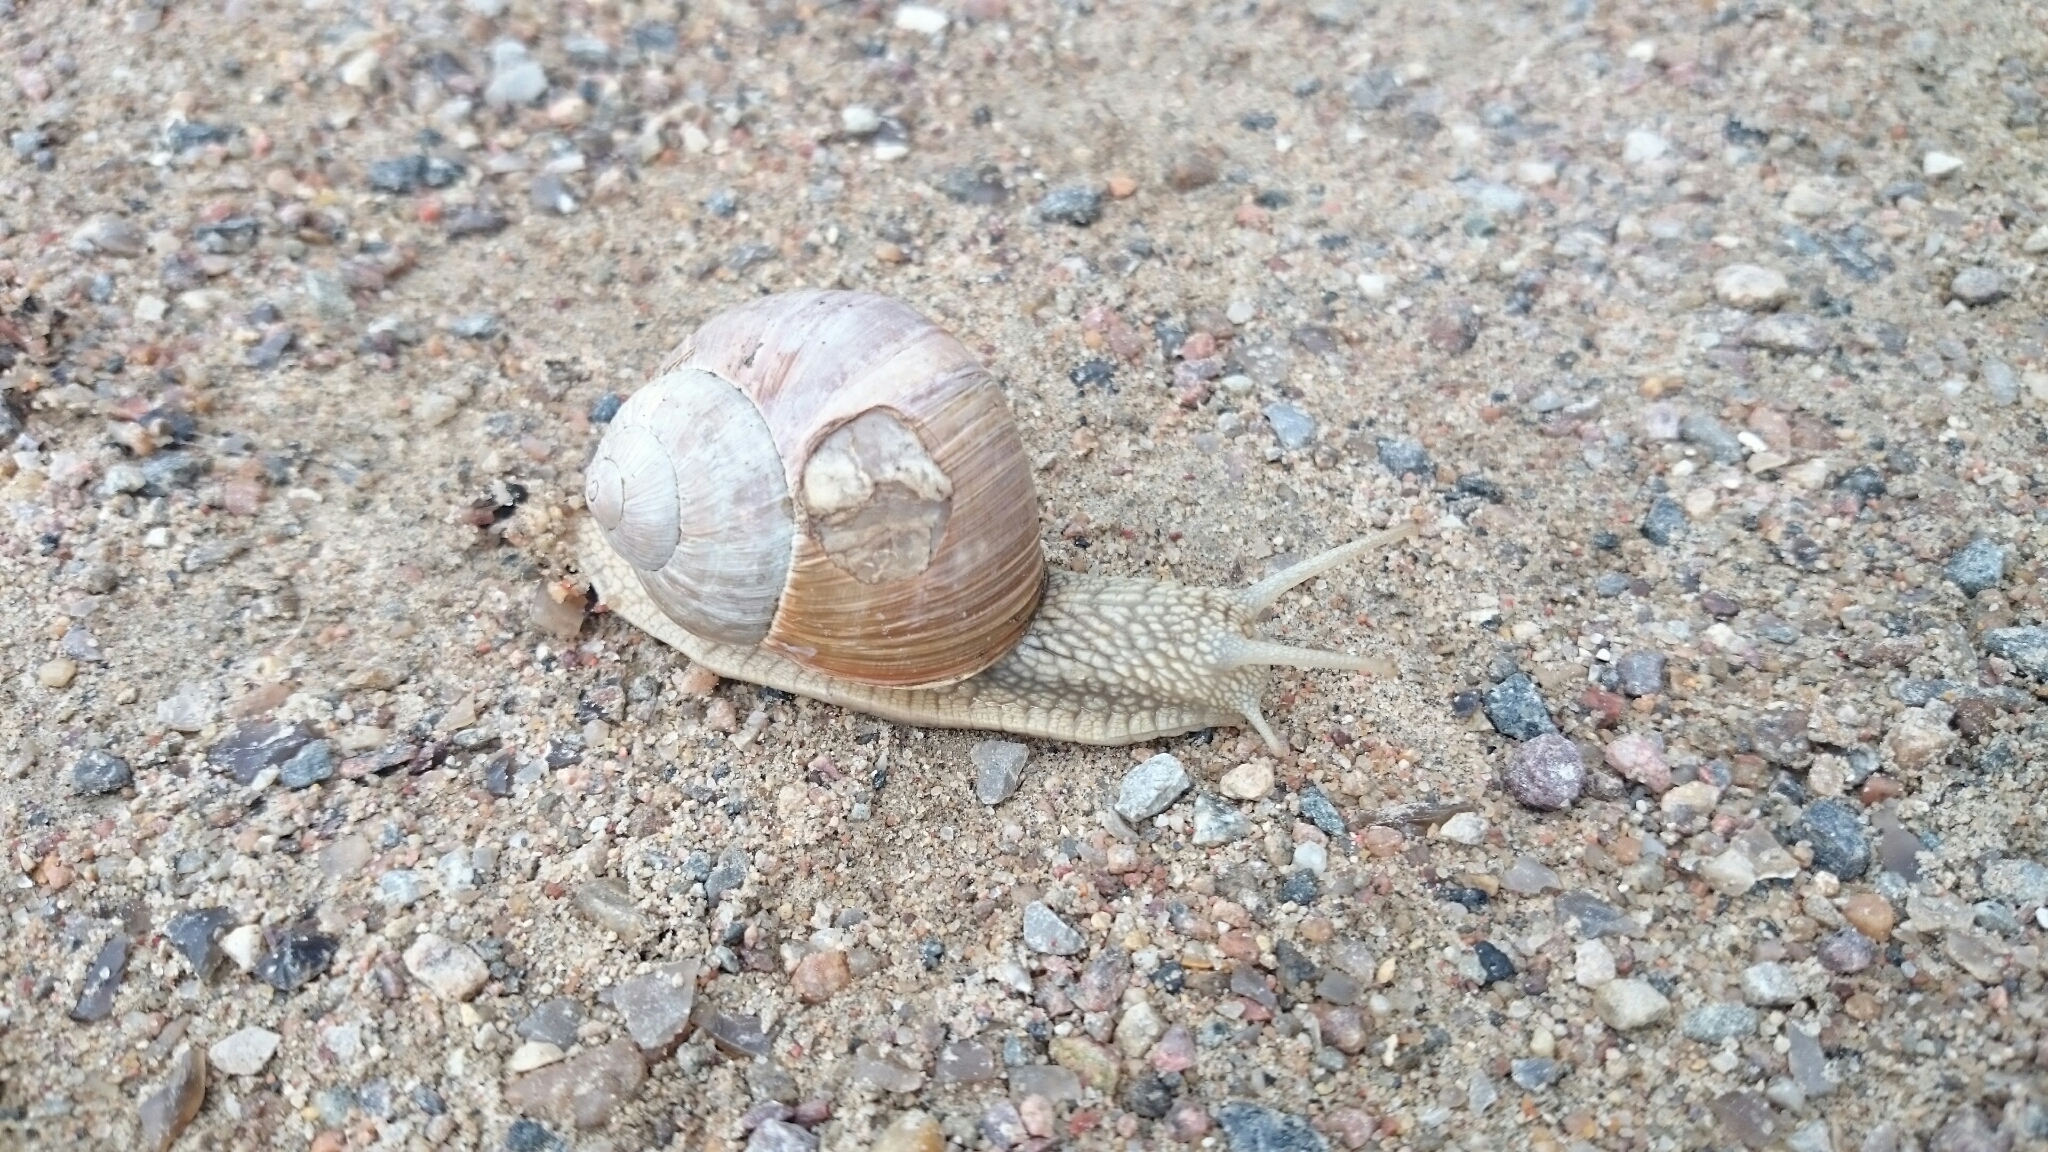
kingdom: Animalia
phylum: Mollusca
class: Gastropoda
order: Stylommatophora
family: Helicidae
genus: Helix
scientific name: Helix pomatia
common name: Roman snail
